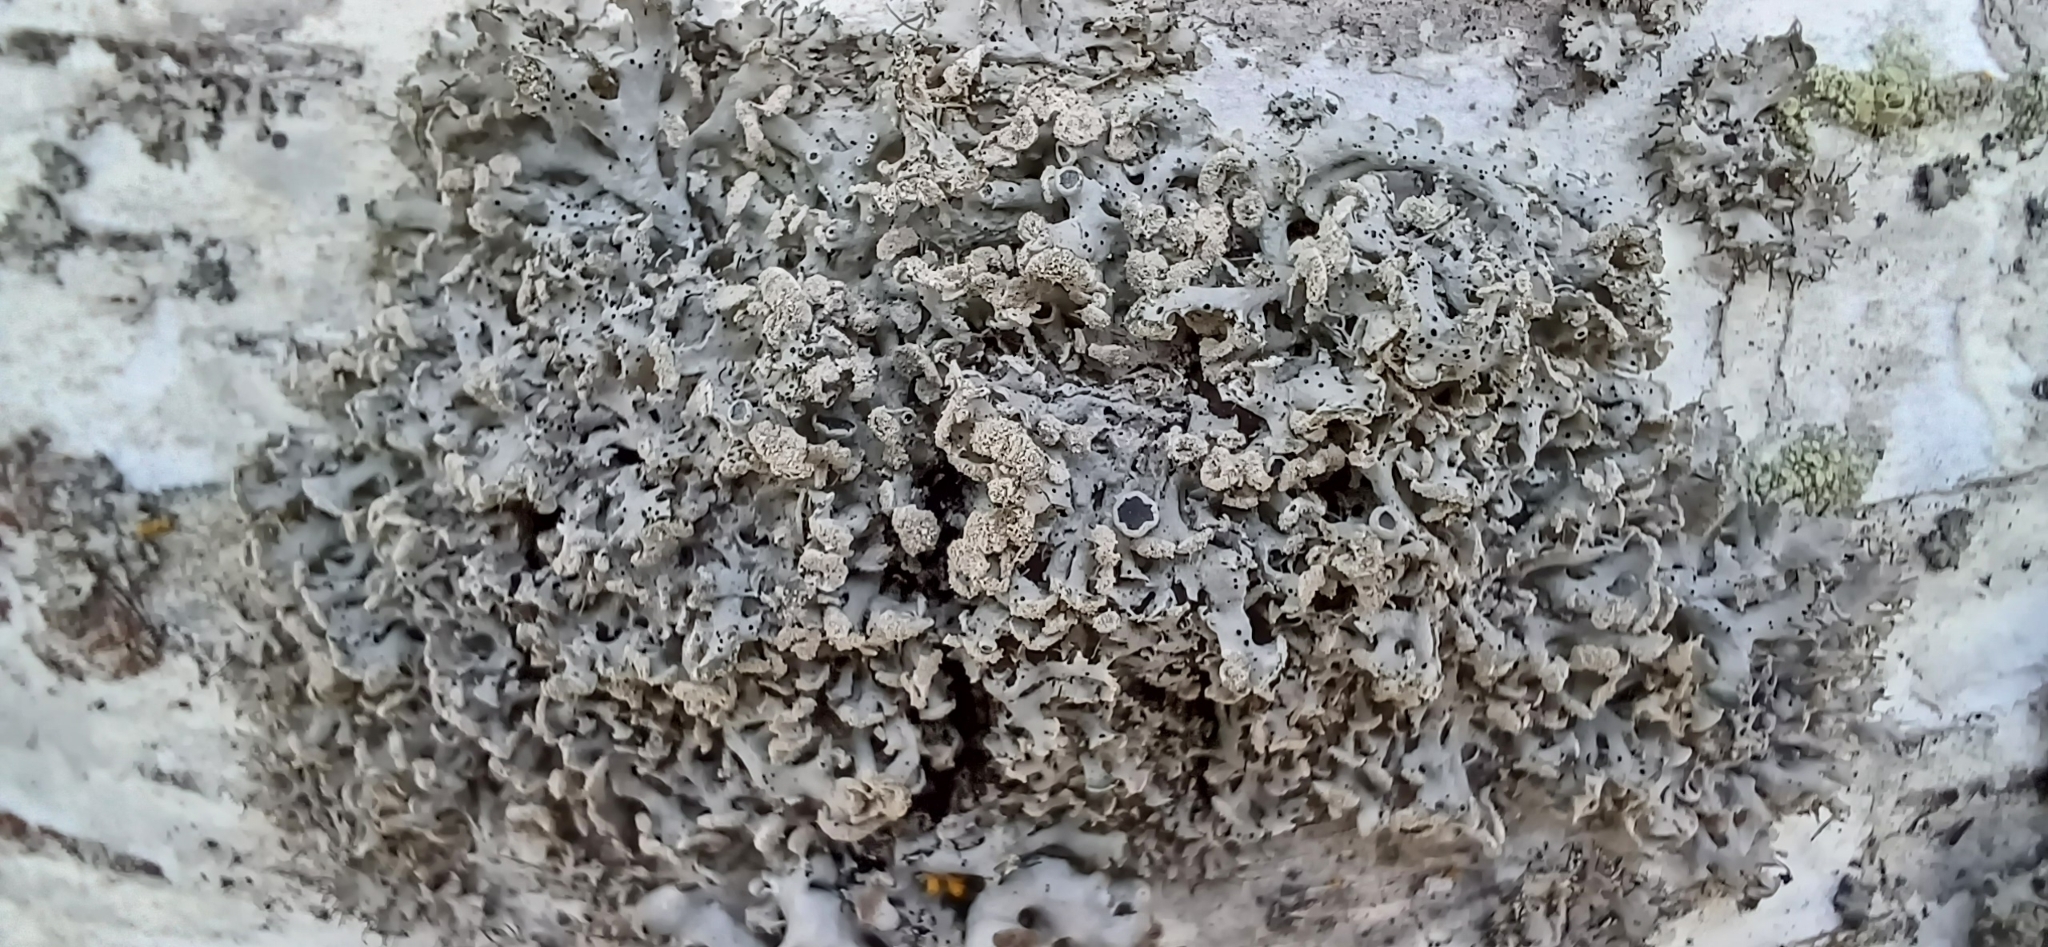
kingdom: Fungi
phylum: Ascomycota
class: Lecanoromycetes
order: Caliciales
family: Physciaceae
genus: Physcia
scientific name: Physcia tenella
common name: Fringed rosette lichen
